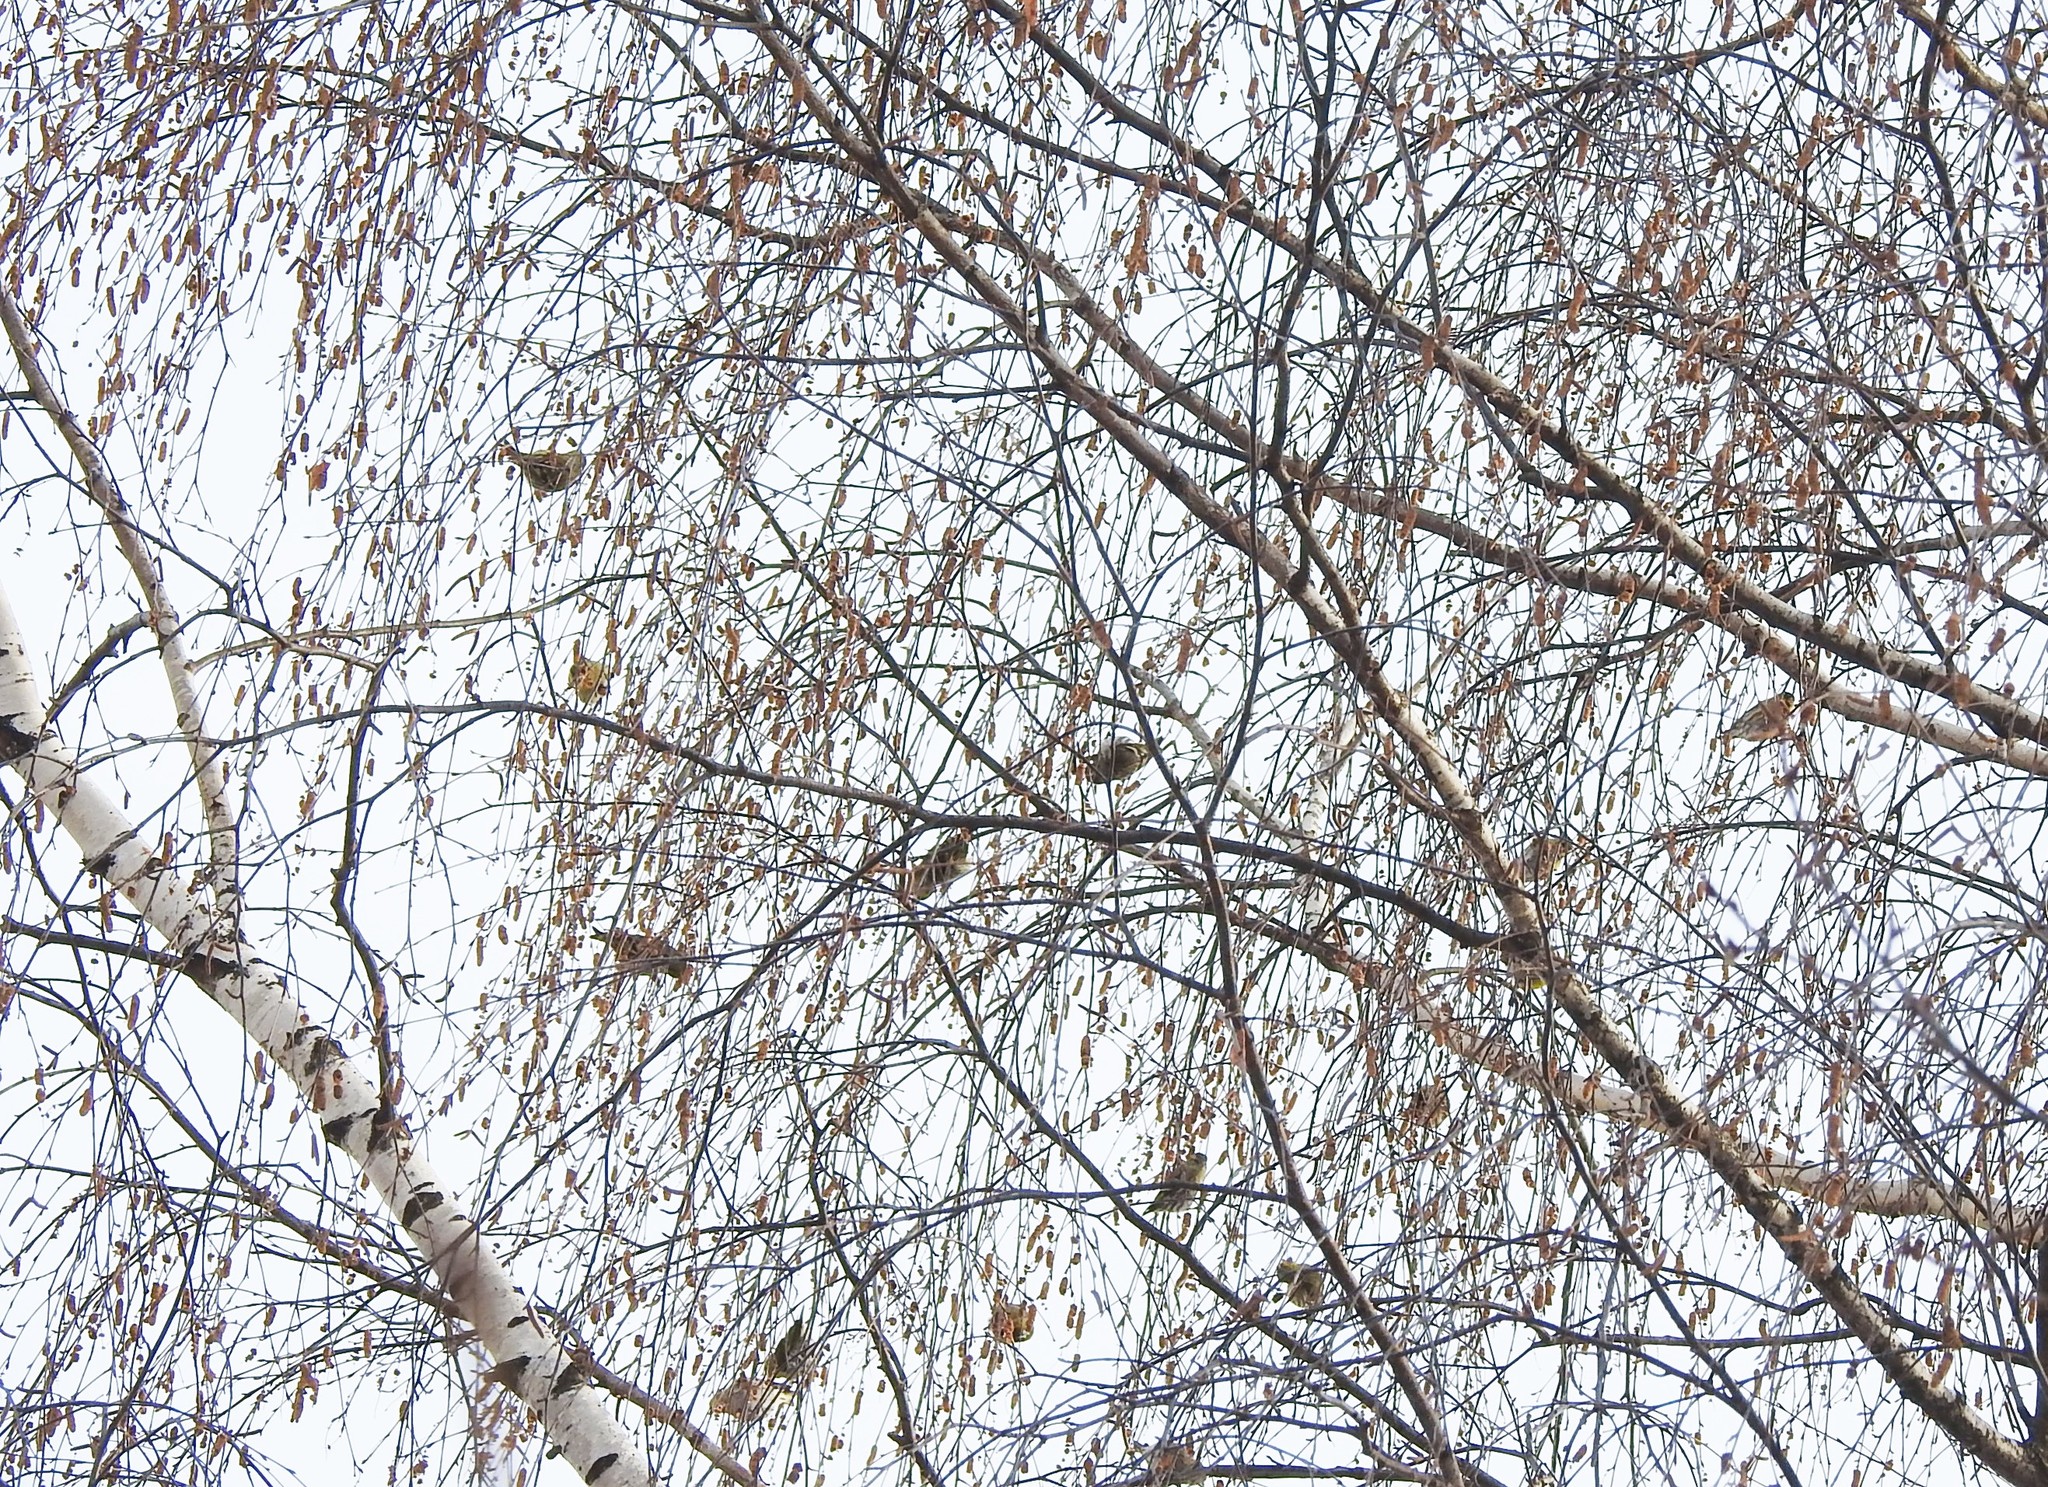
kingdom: Animalia
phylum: Chordata
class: Aves
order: Passeriformes
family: Fringillidae
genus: Spinus
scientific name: Spinus spinus
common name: Eurasian siskin
